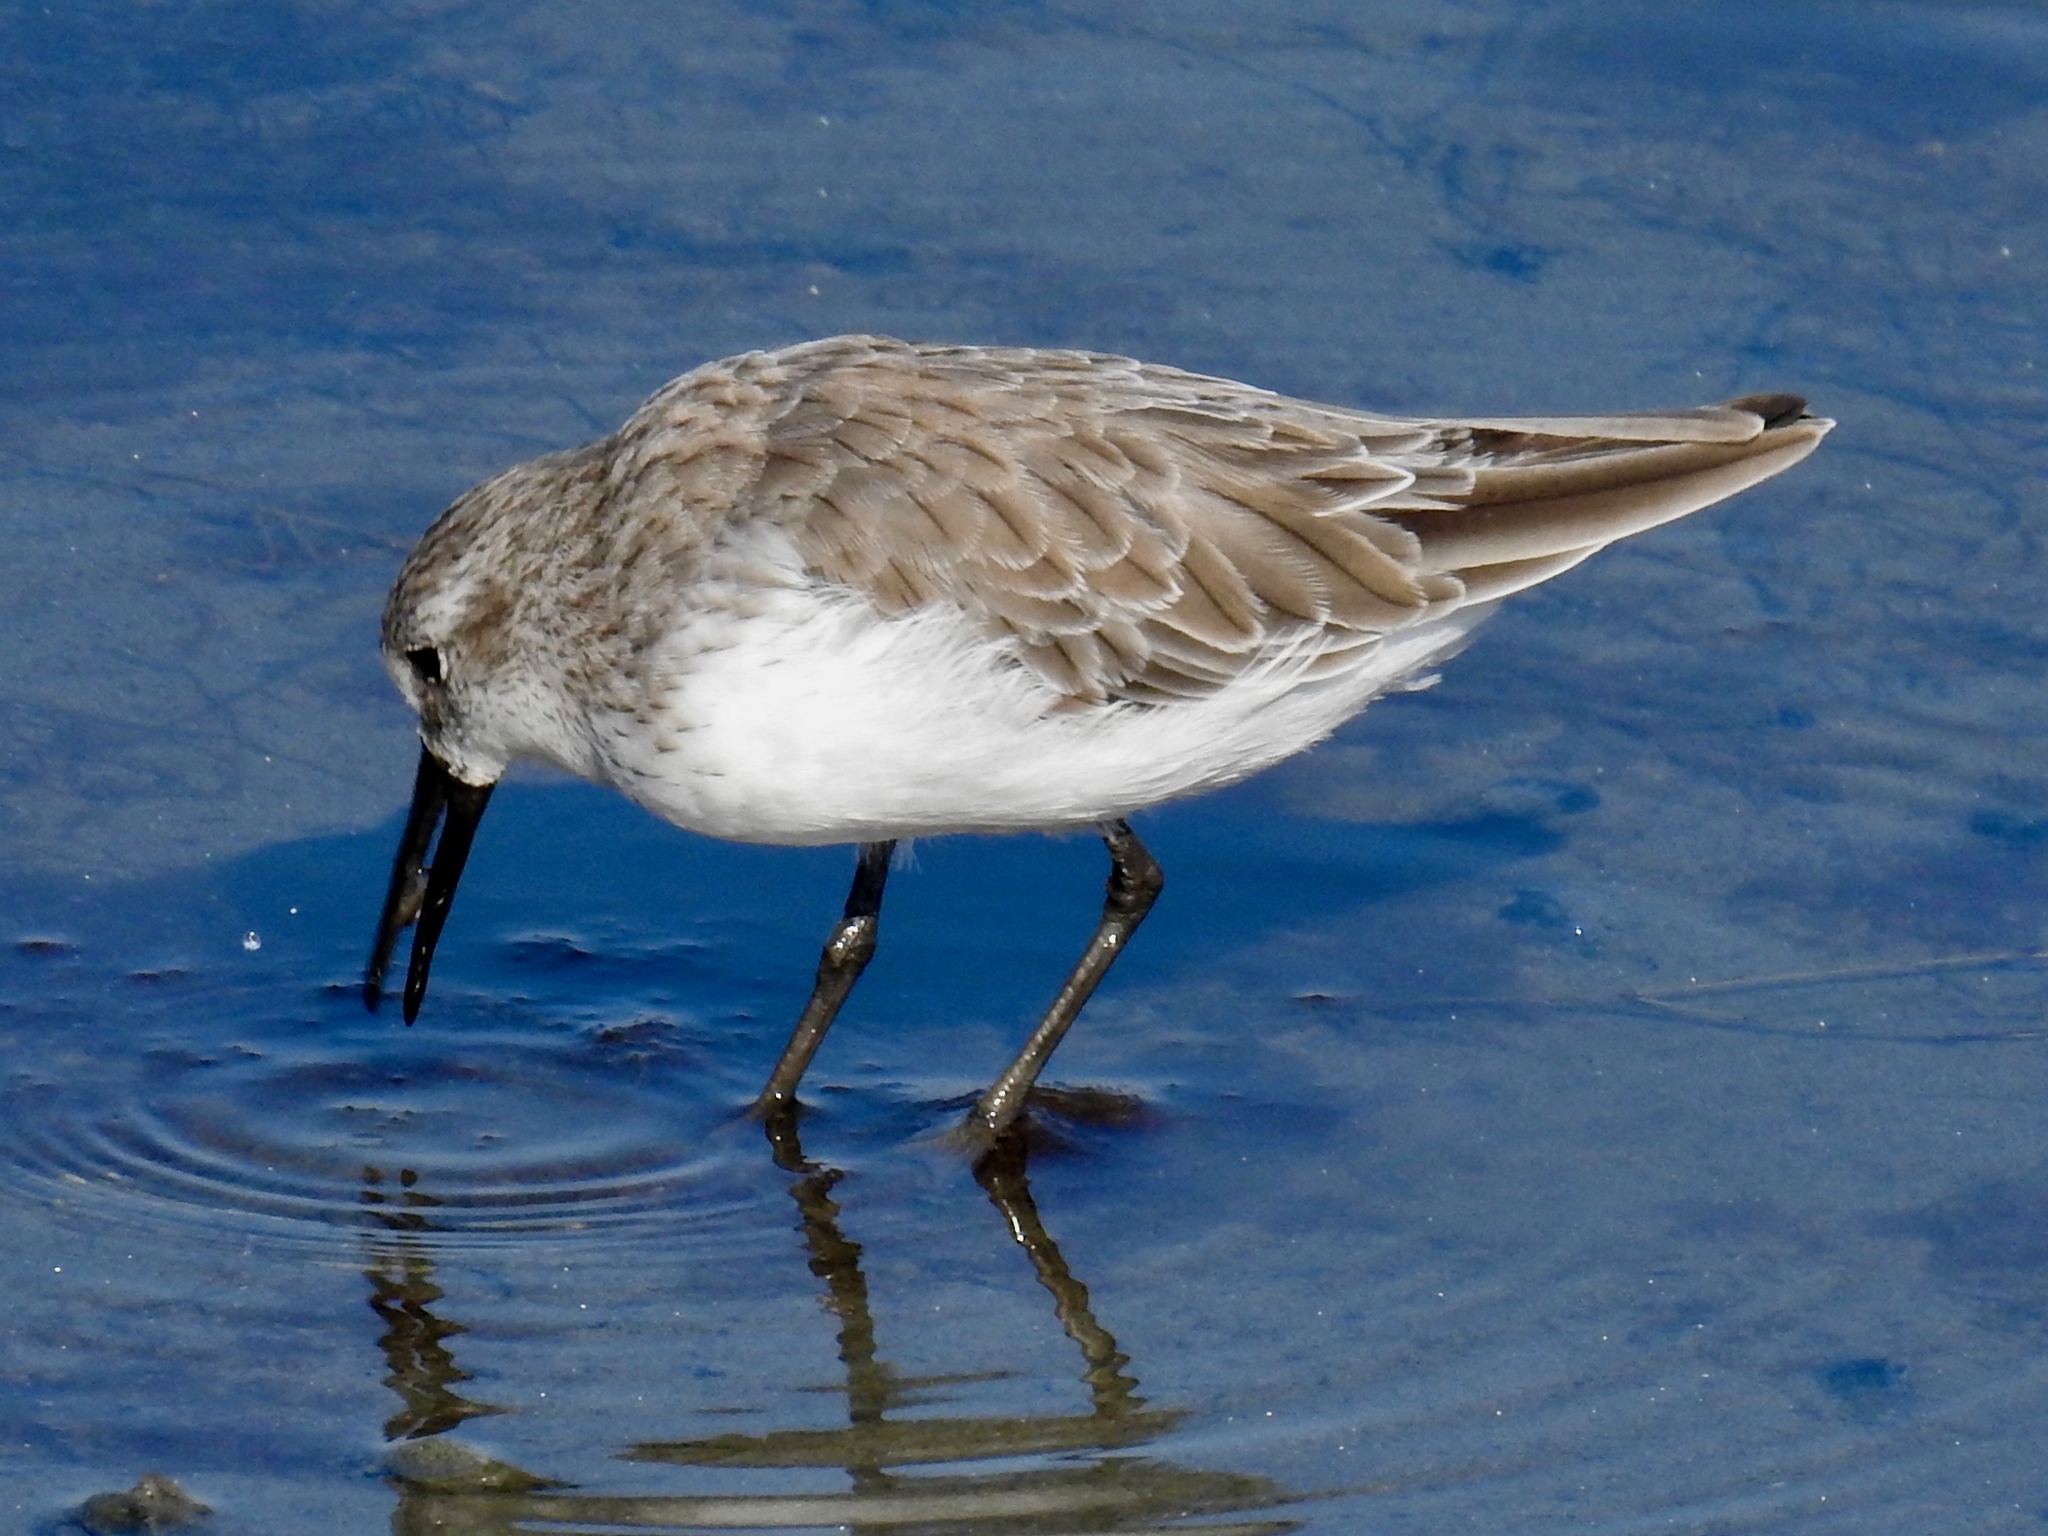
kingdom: Animalia
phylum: Chordata
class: Aves
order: Charadriiformes
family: Scolopacidae
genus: Calidris
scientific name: Calidris mauri
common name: Western sandpiper
